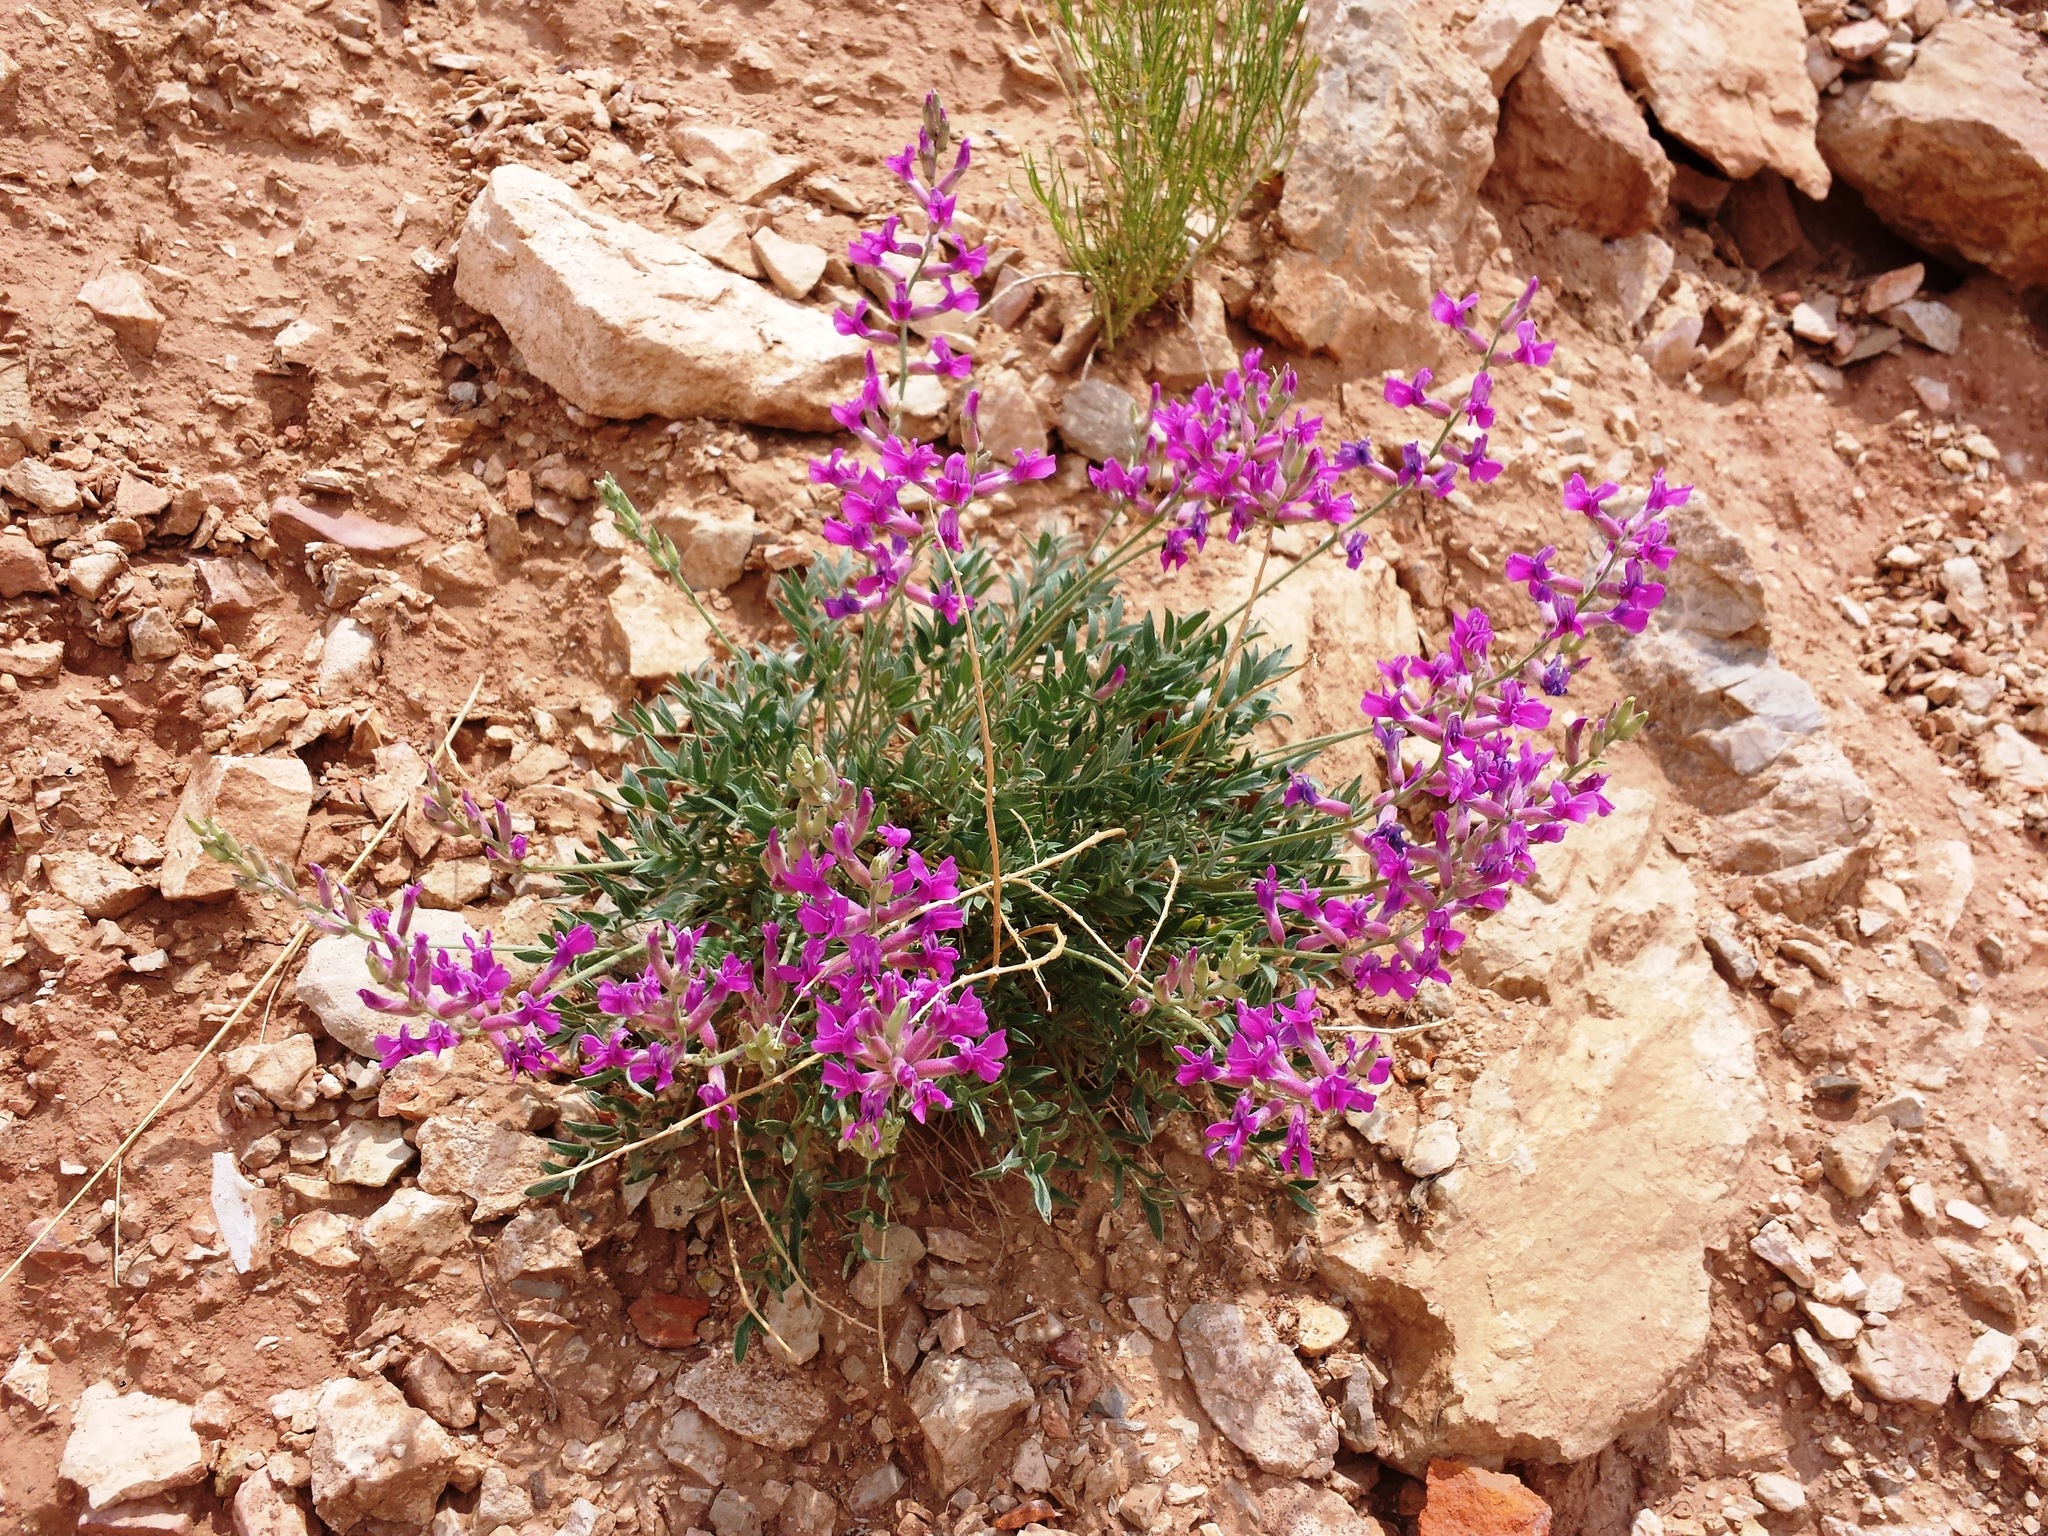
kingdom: Plantae
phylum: Tracheophyta
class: Magnoliopsida
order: Fabales
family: Fabaceae
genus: Oxytropis
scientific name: Oxytropis besseyi
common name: Bessey's locoweed
